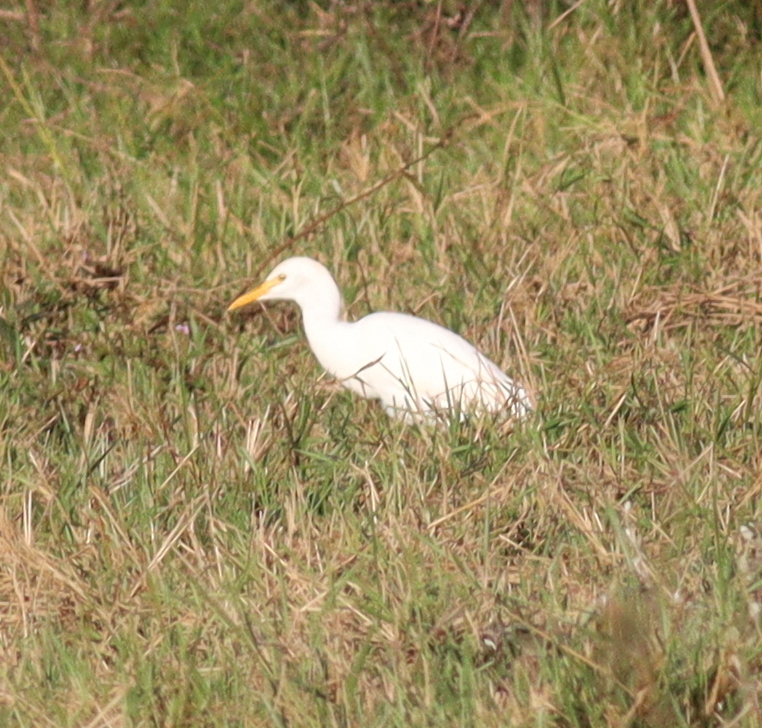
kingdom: Animalia
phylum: Chordata
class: Aves
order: Pelecaniformes
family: Ardeidae
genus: Bubulcus
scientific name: Bubulcus ibis
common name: Cattle egret
